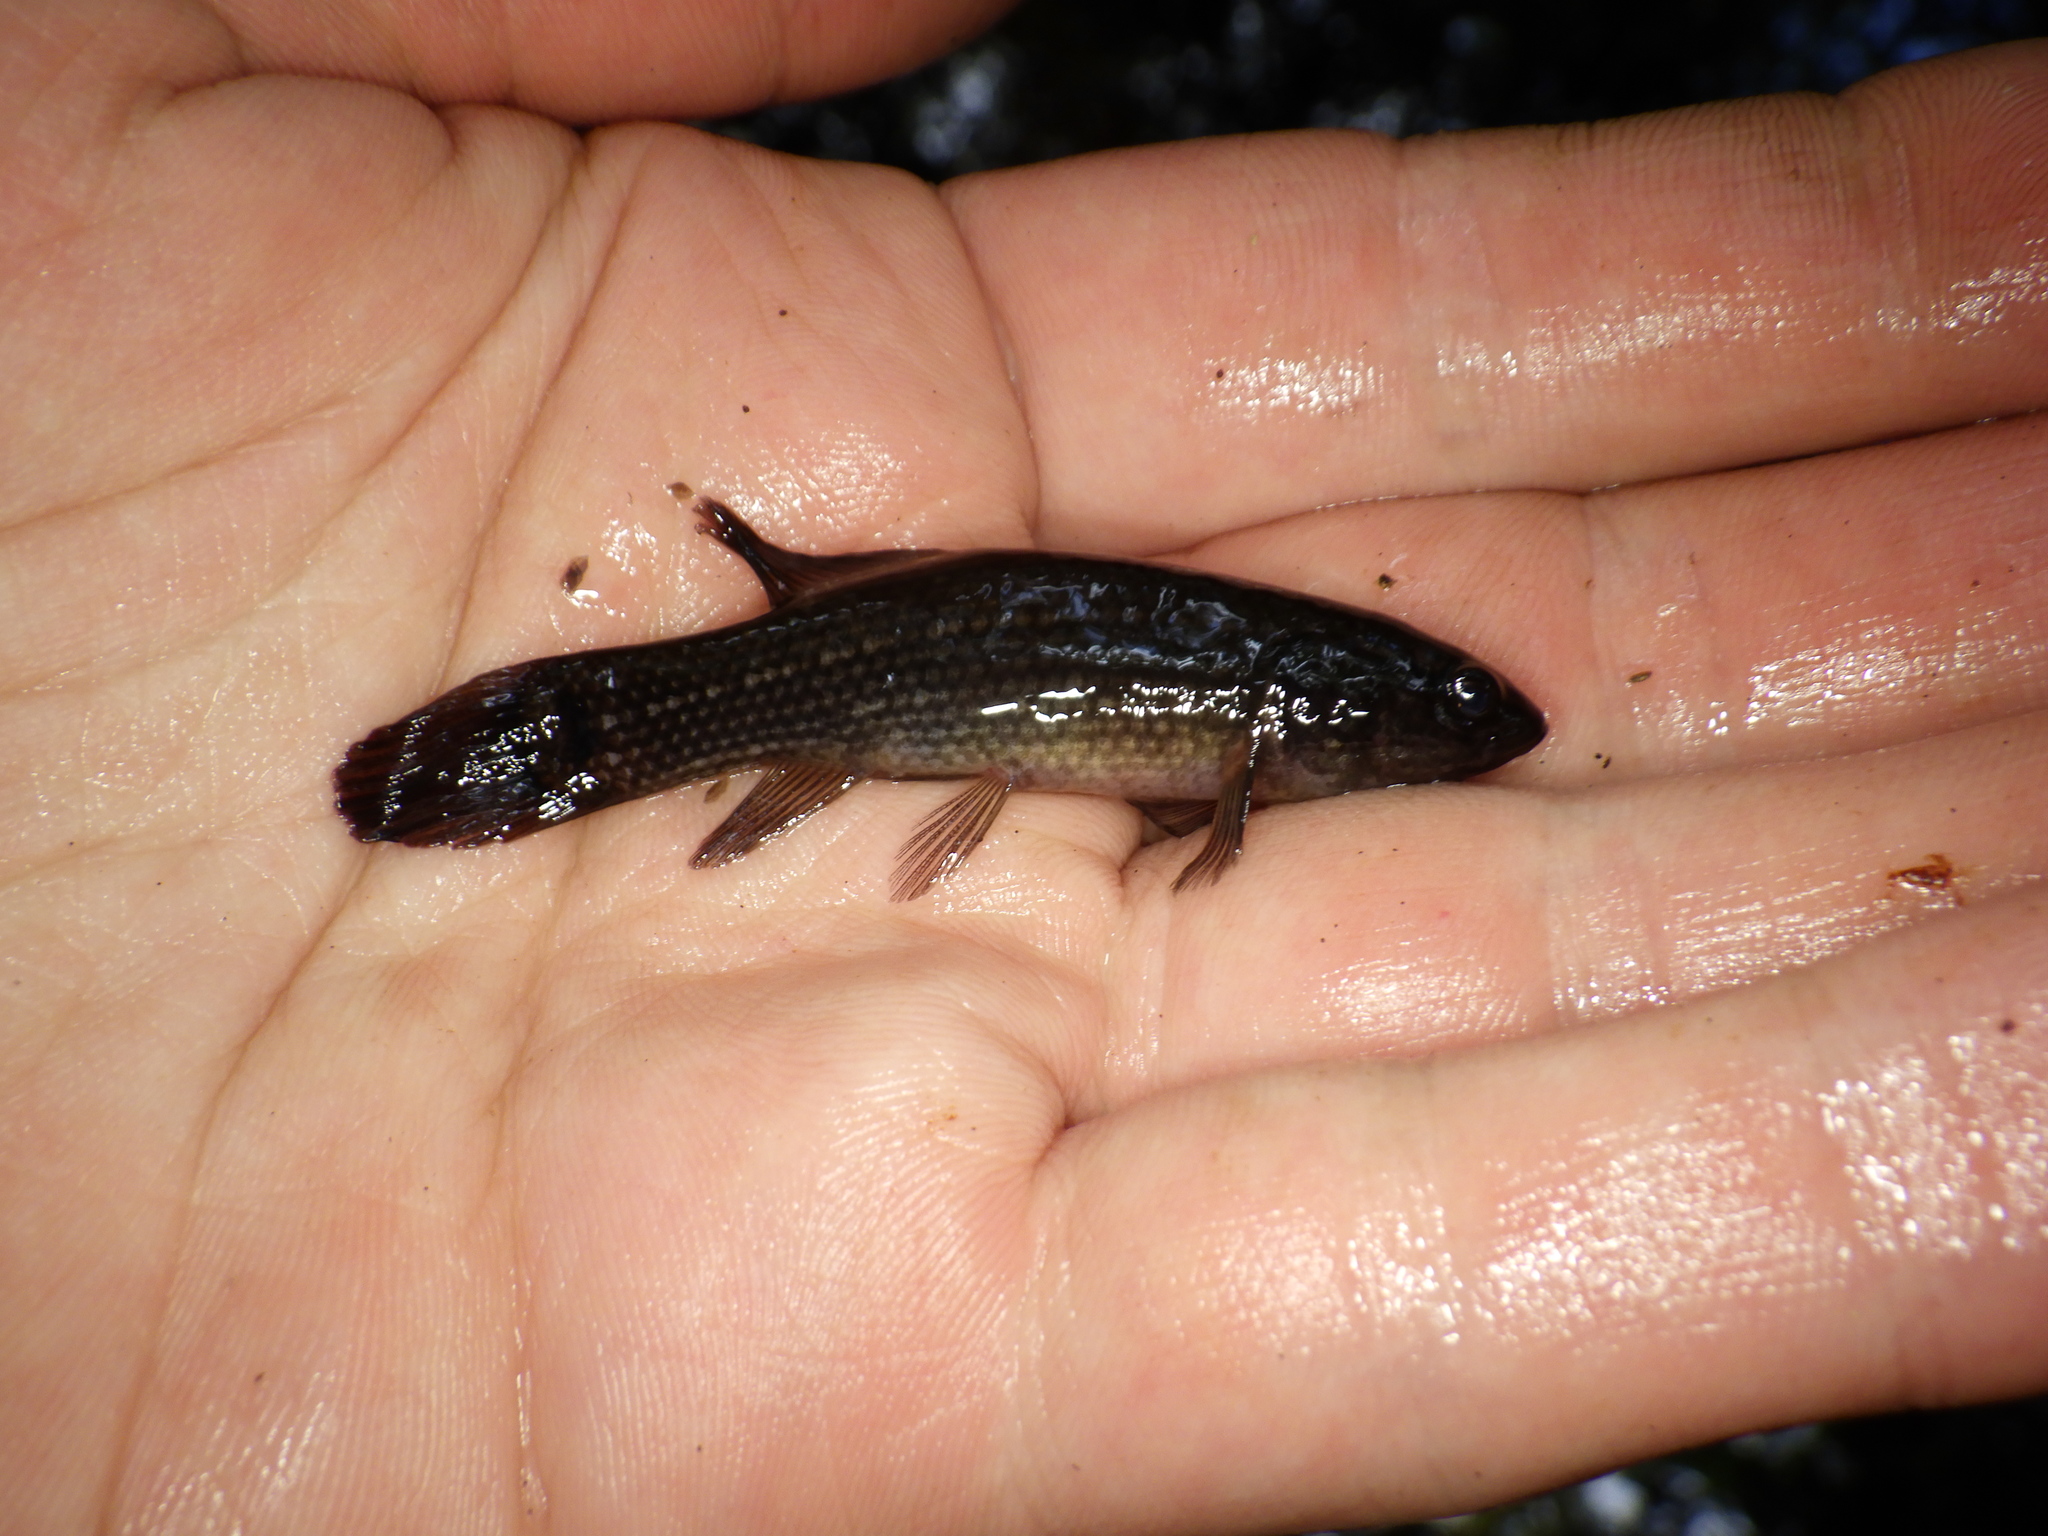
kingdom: Animalia
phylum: Chordata
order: Esociformes
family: Umbridae
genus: Umbra
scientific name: Umbra pygmaea
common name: Eastern mudminnow
